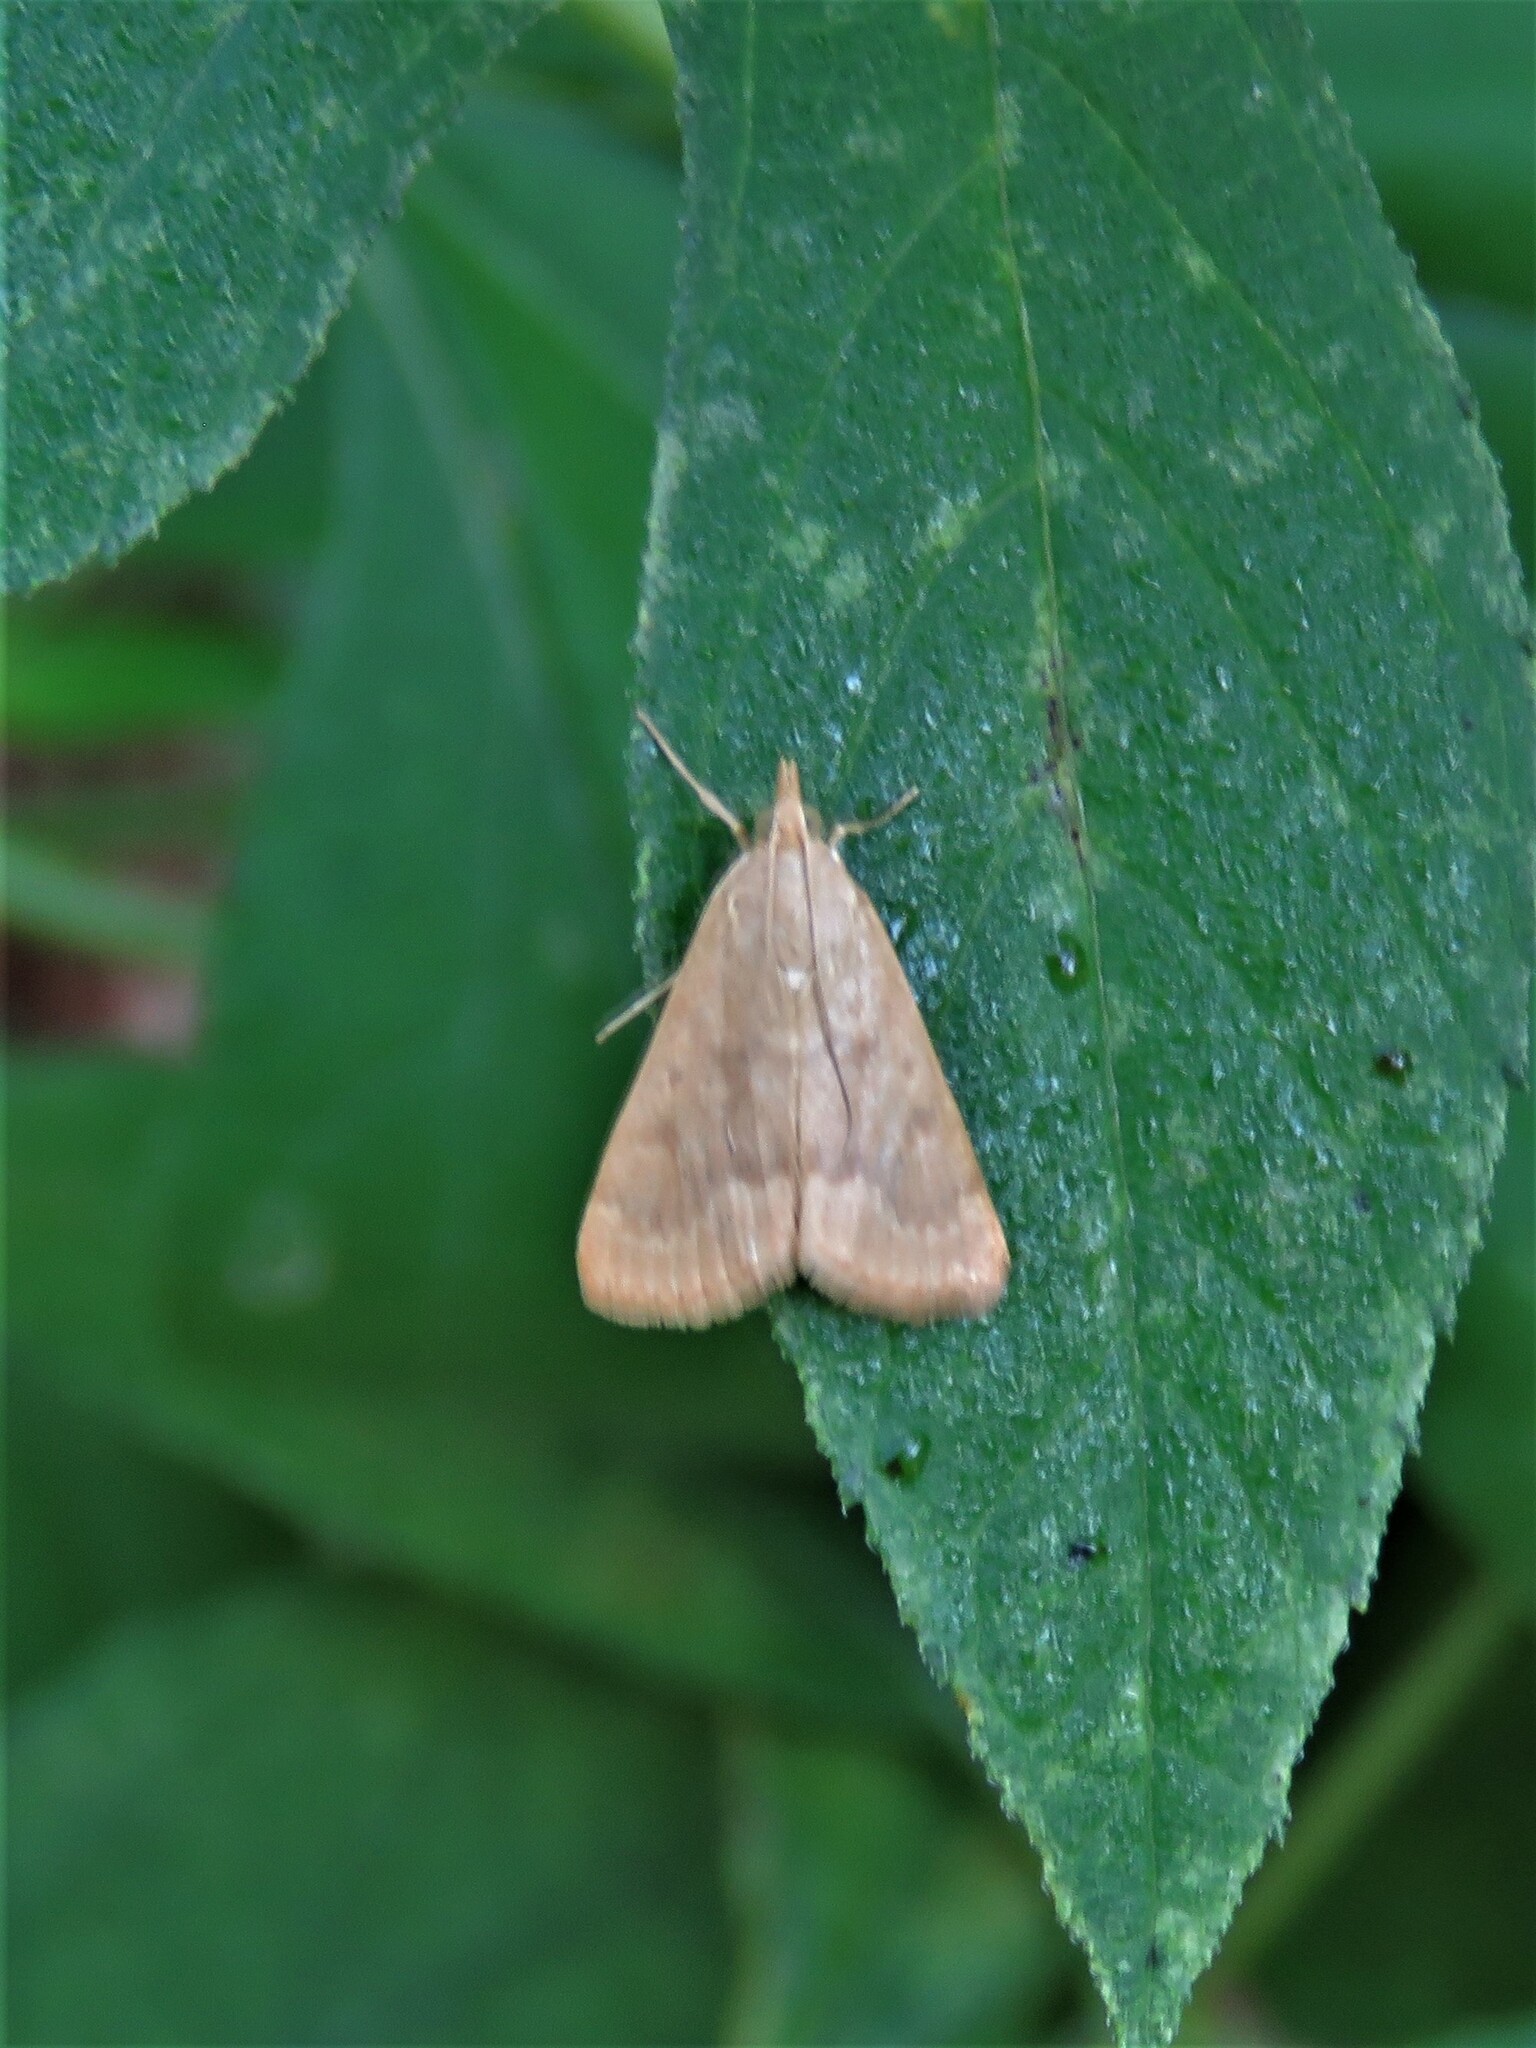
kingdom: Animalia
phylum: Arthropoda
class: Insecta
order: Lepidoptera
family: Crambidae
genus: Achyra
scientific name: Achyra rantalis
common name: Garden webworm
